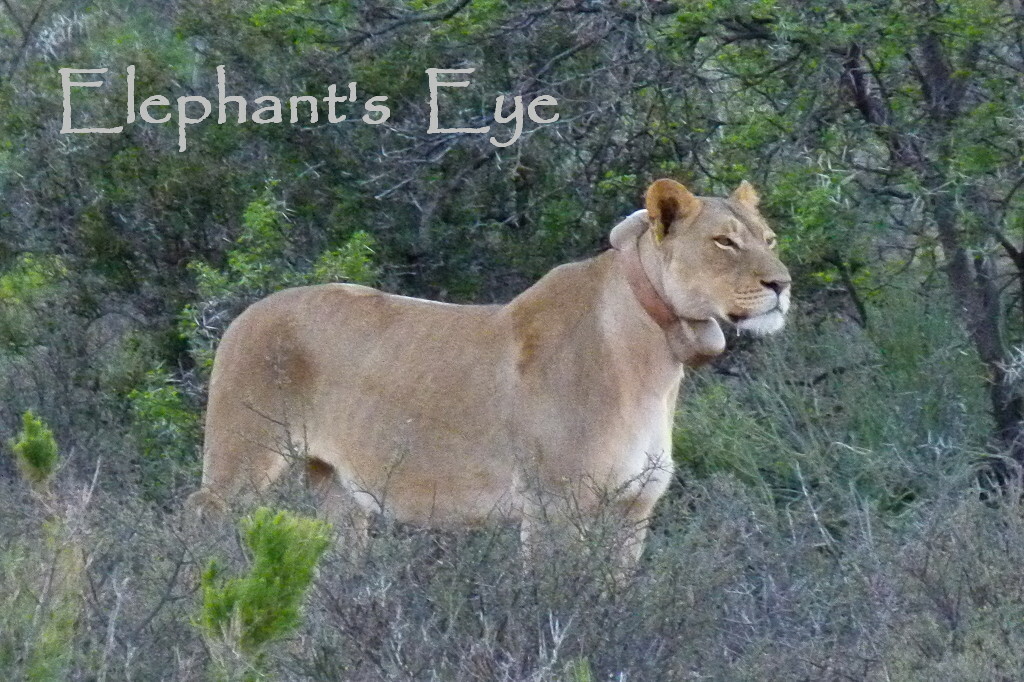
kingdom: Animalia
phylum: Chordata
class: Mammalia
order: Carnivora
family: Felidae
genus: Panthera
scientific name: Panthera leo
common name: Lion
